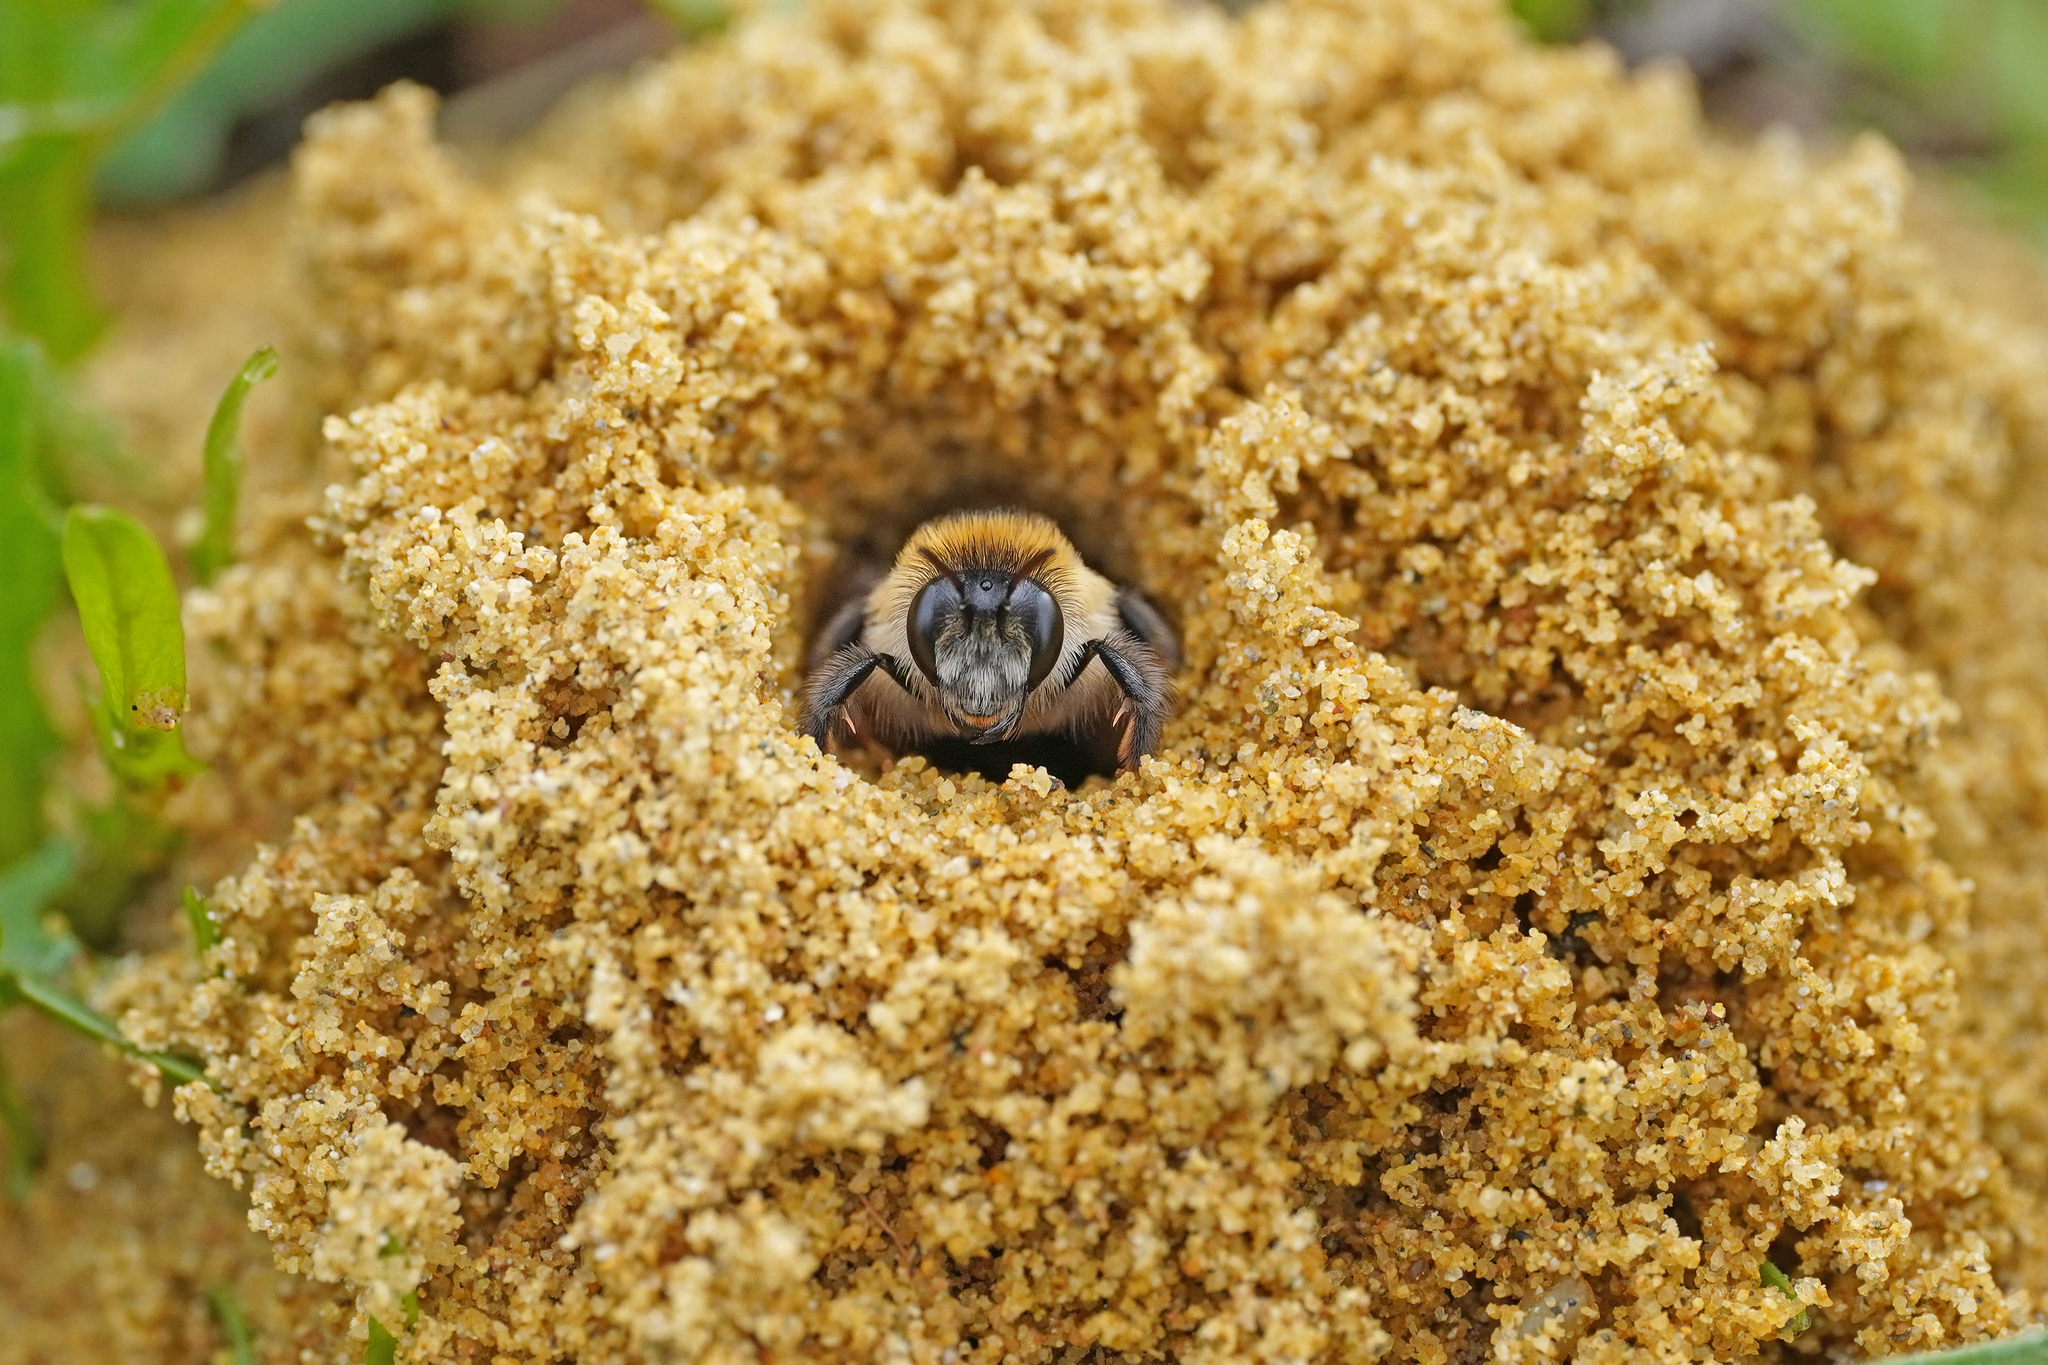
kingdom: Animalia
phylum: Arthropoda
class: Insecta
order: Hymenoptera
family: Melittidae
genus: Dasypoda
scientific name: Dasypoda hirtipes
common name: Pantaloon bee
